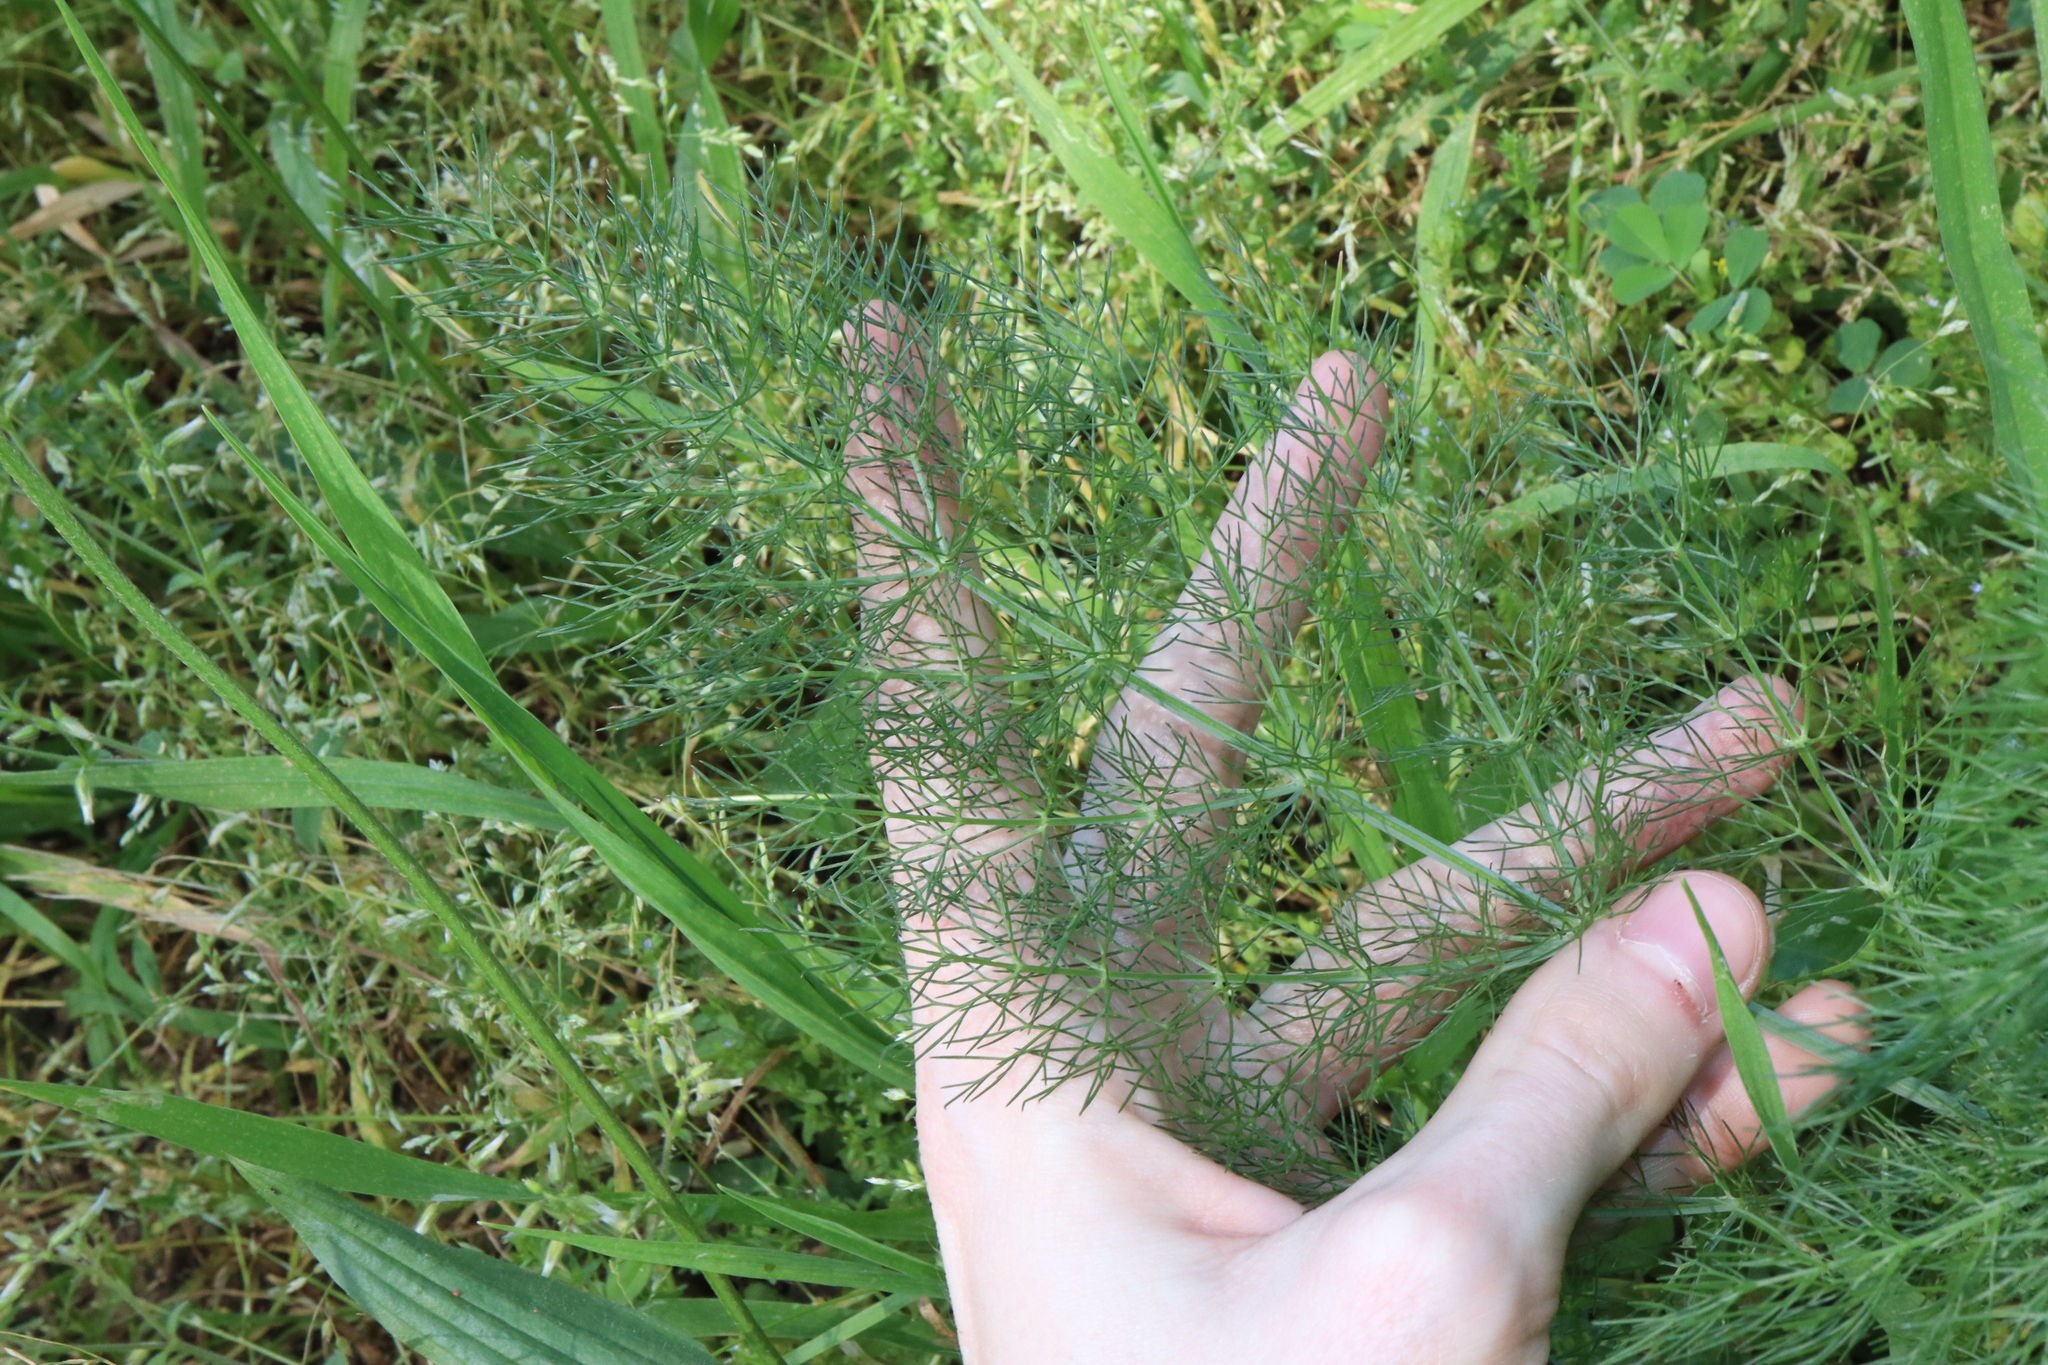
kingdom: Plantae
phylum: Tracheophyta
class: Magnoliopsida
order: Apiales
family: Apiaceae
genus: Foeniculum
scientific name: Foeniculum vulgare
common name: Fennel
